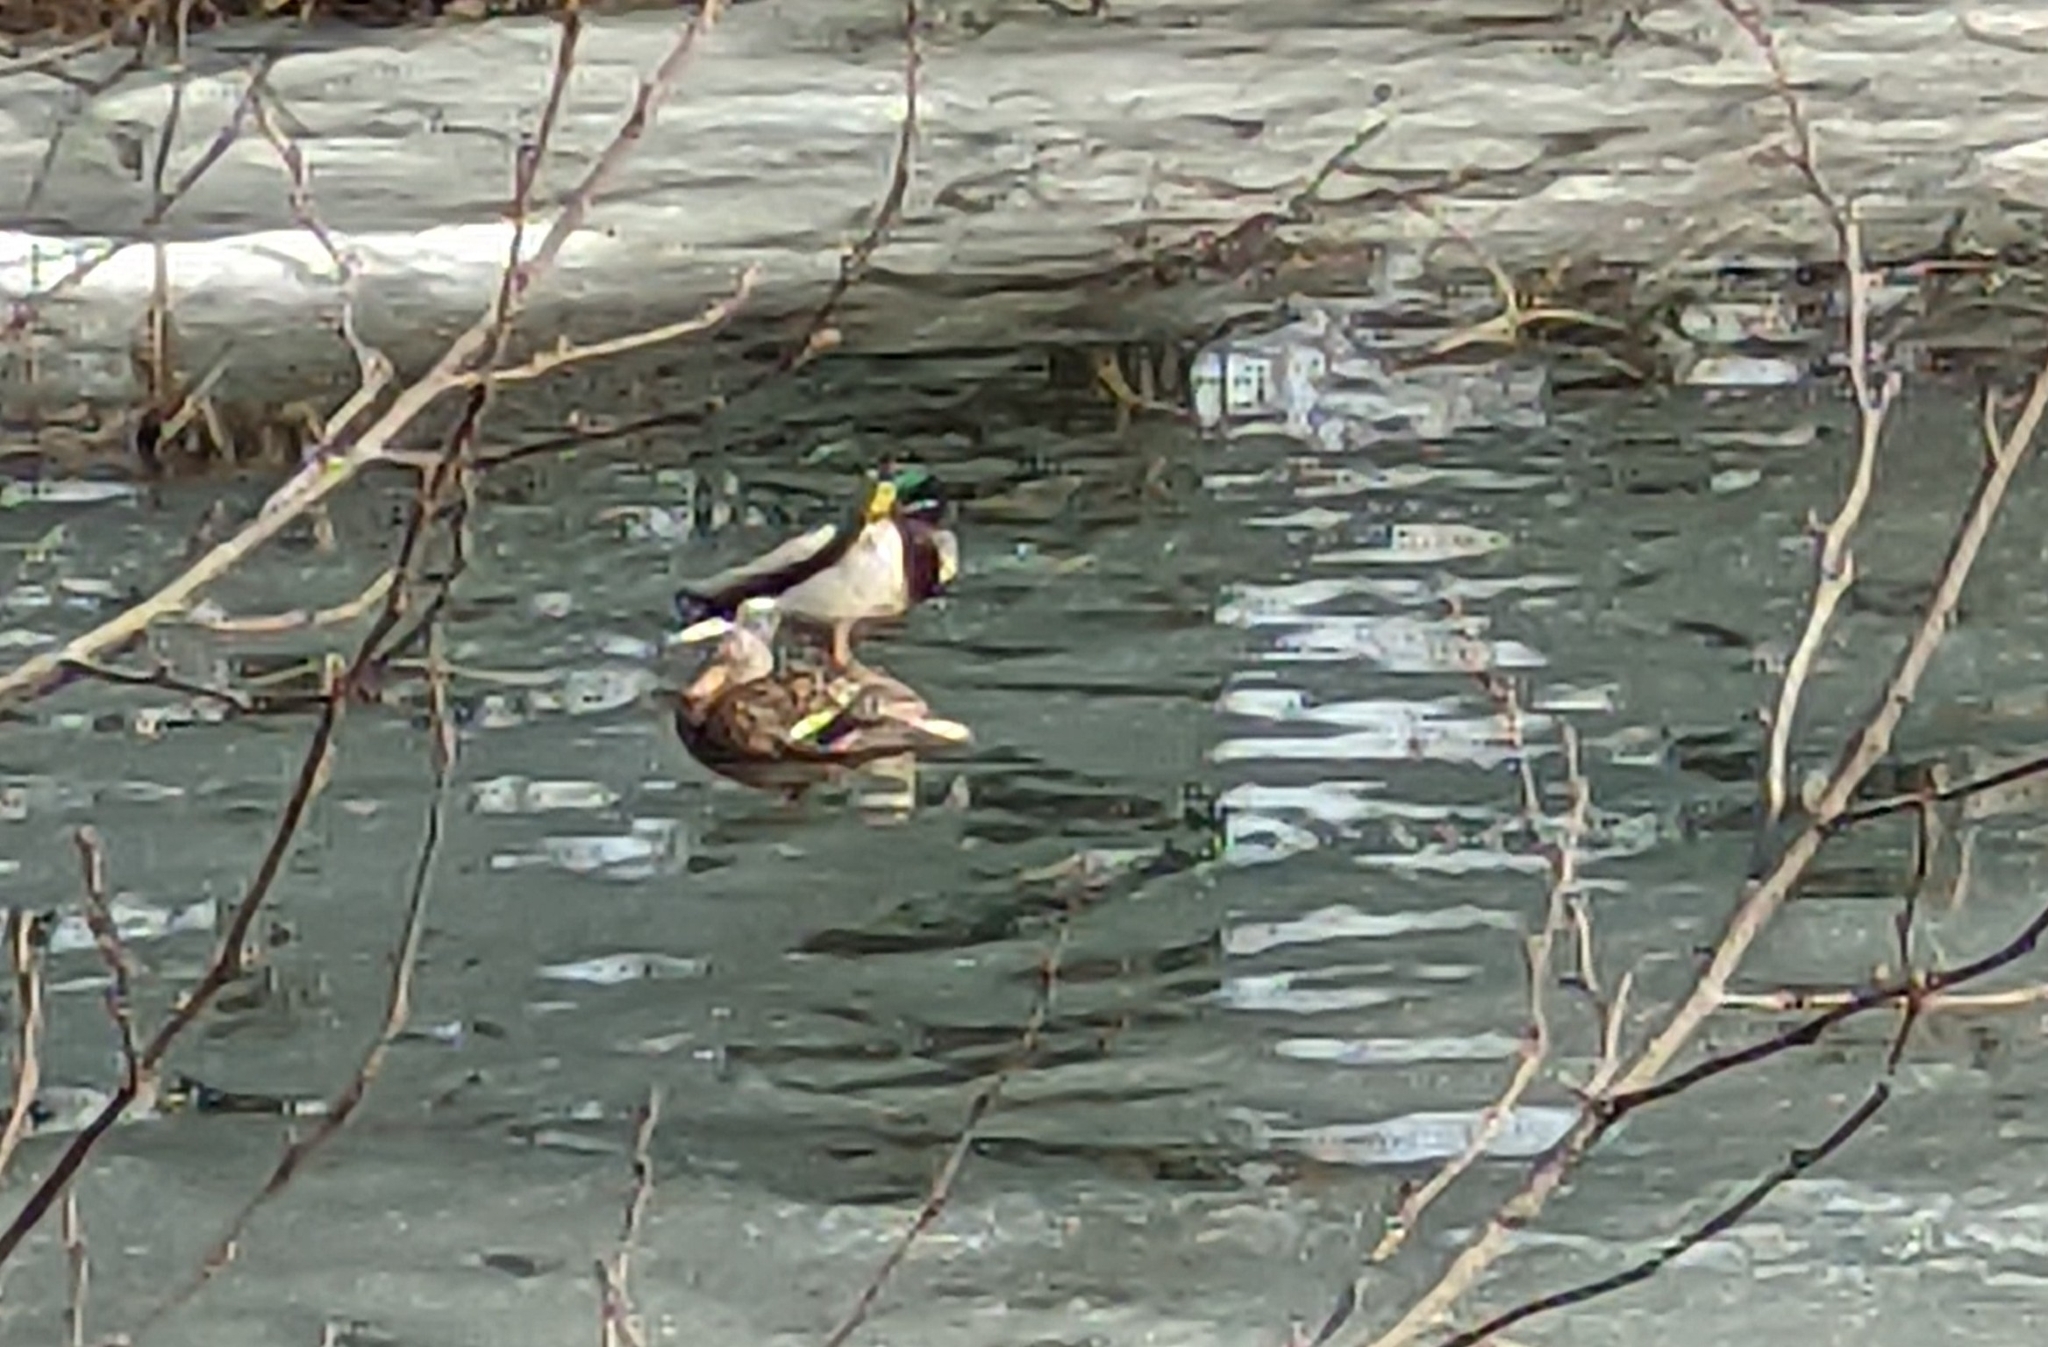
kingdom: Animalia
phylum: Chordata
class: Aves
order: Anseriformes
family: Anatidae
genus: Anas
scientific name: Anas platyrhynchos
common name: Mallard
